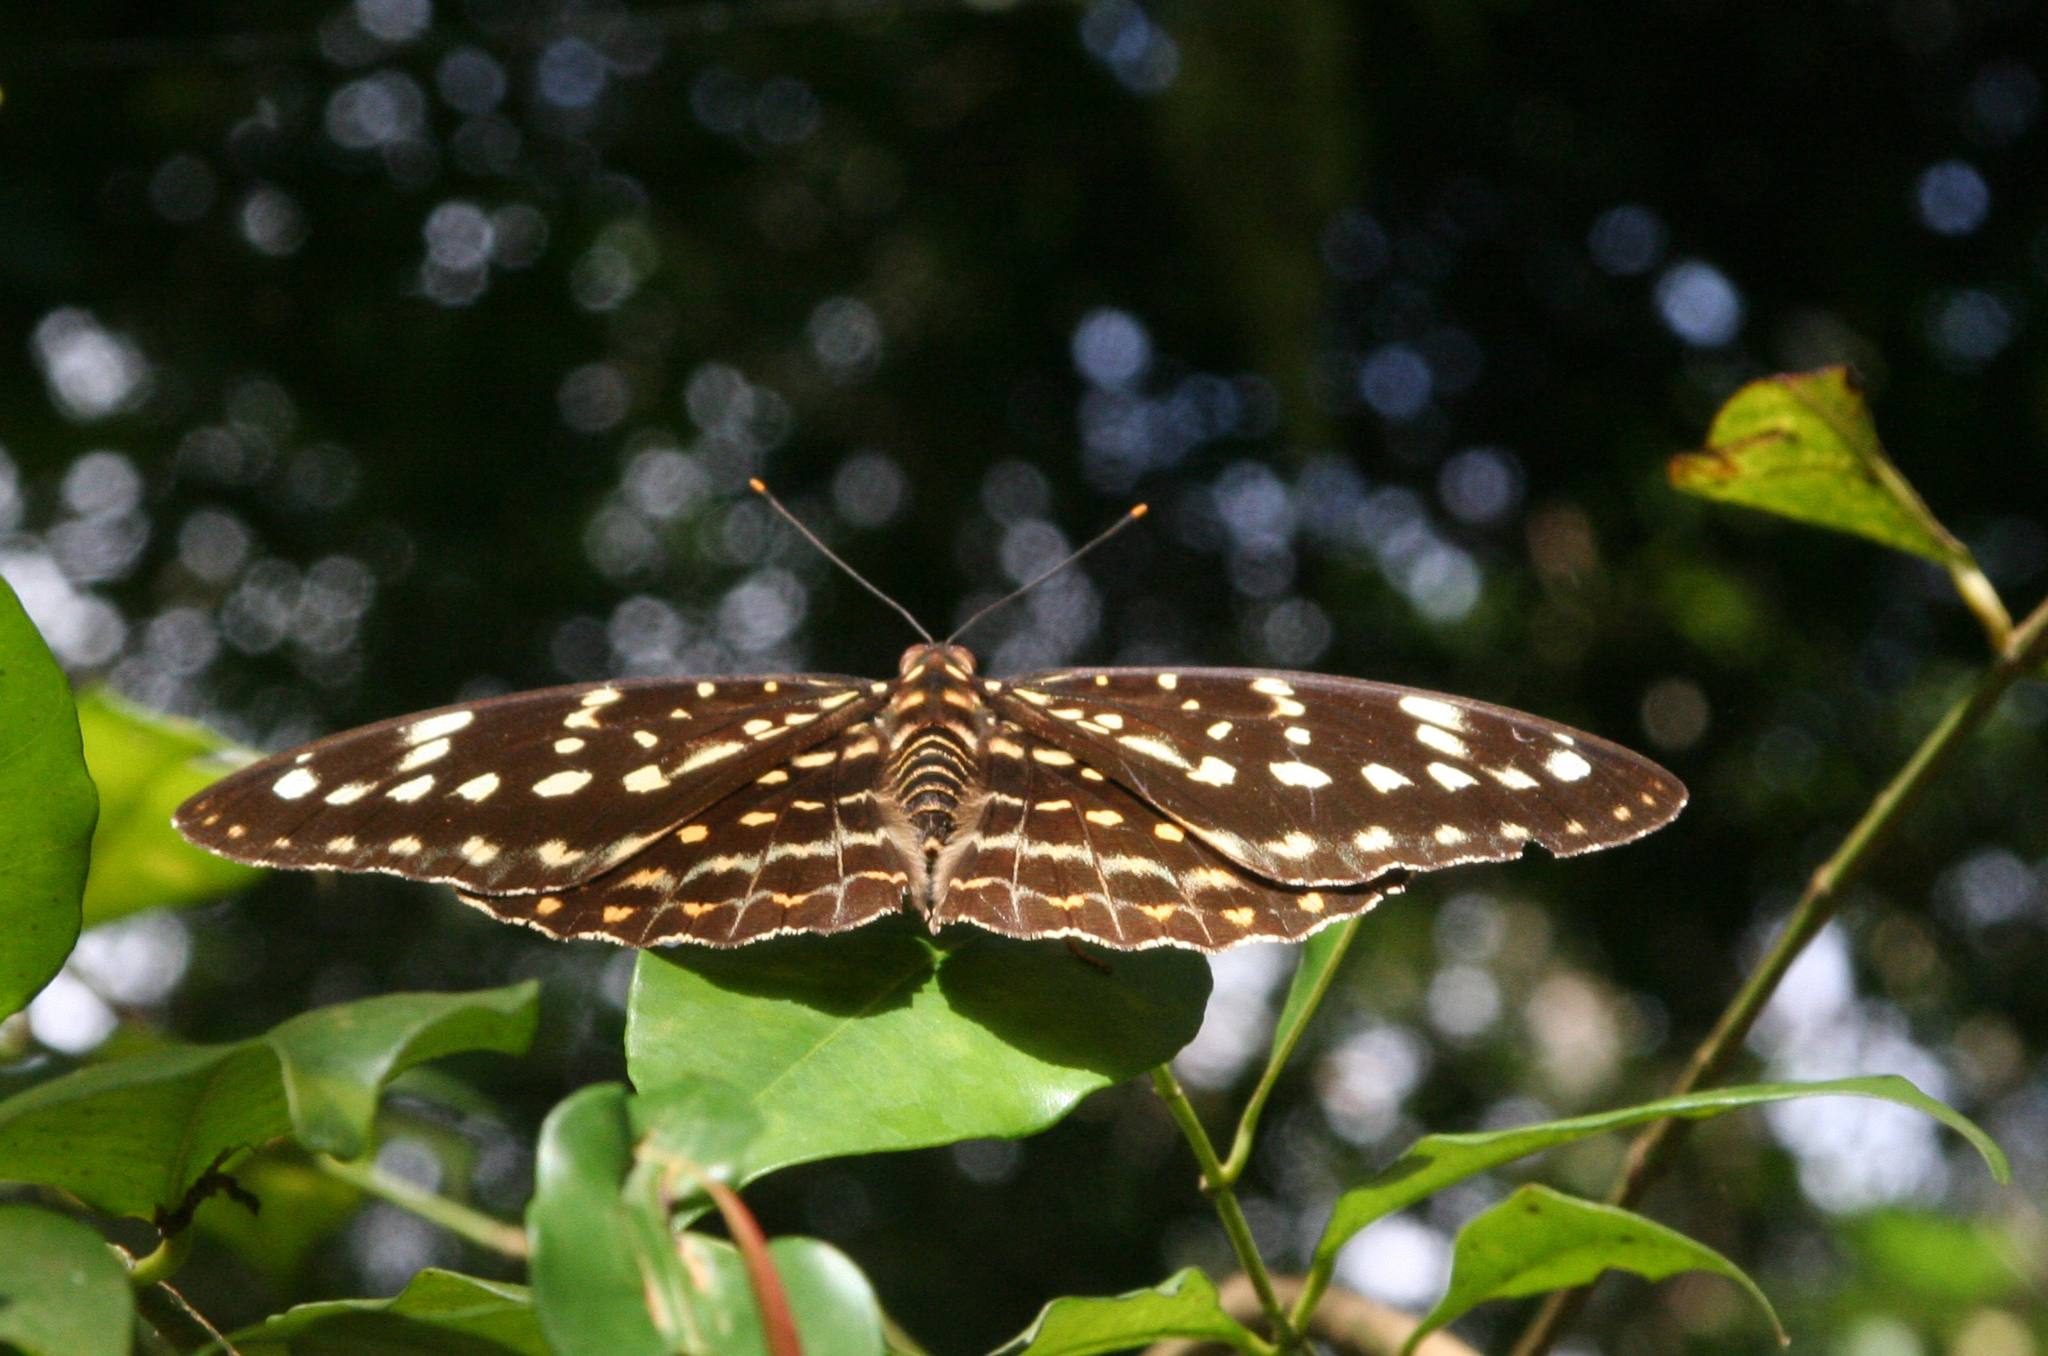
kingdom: Animalia
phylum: Arthropoda
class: Insecta
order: Lepidoptera
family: Nymphalidae
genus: Lexias
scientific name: Lexias pardalis
